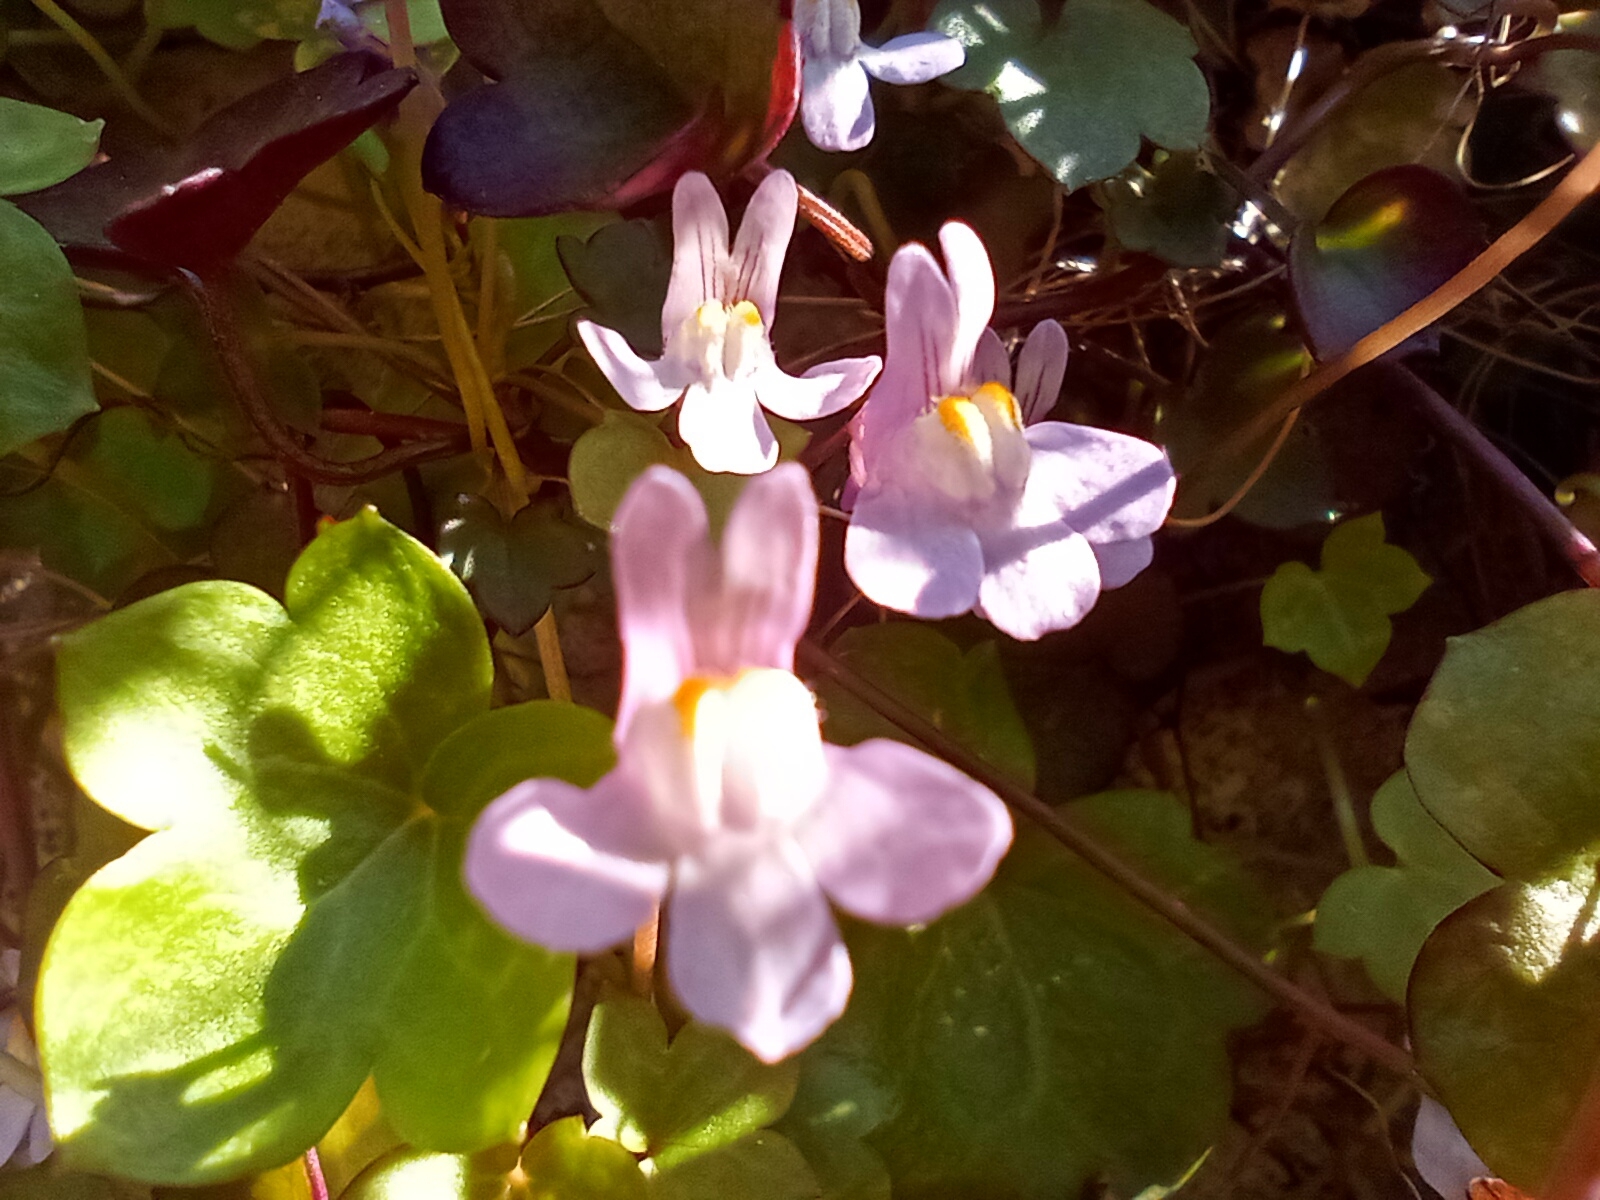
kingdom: Plantae
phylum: Tracheophyta
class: Magnoliopsida
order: Lamiales
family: Plantaginaceae
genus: Cymbalaria
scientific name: Cymbalaria muralis
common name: Ivy-leaved toadflax
